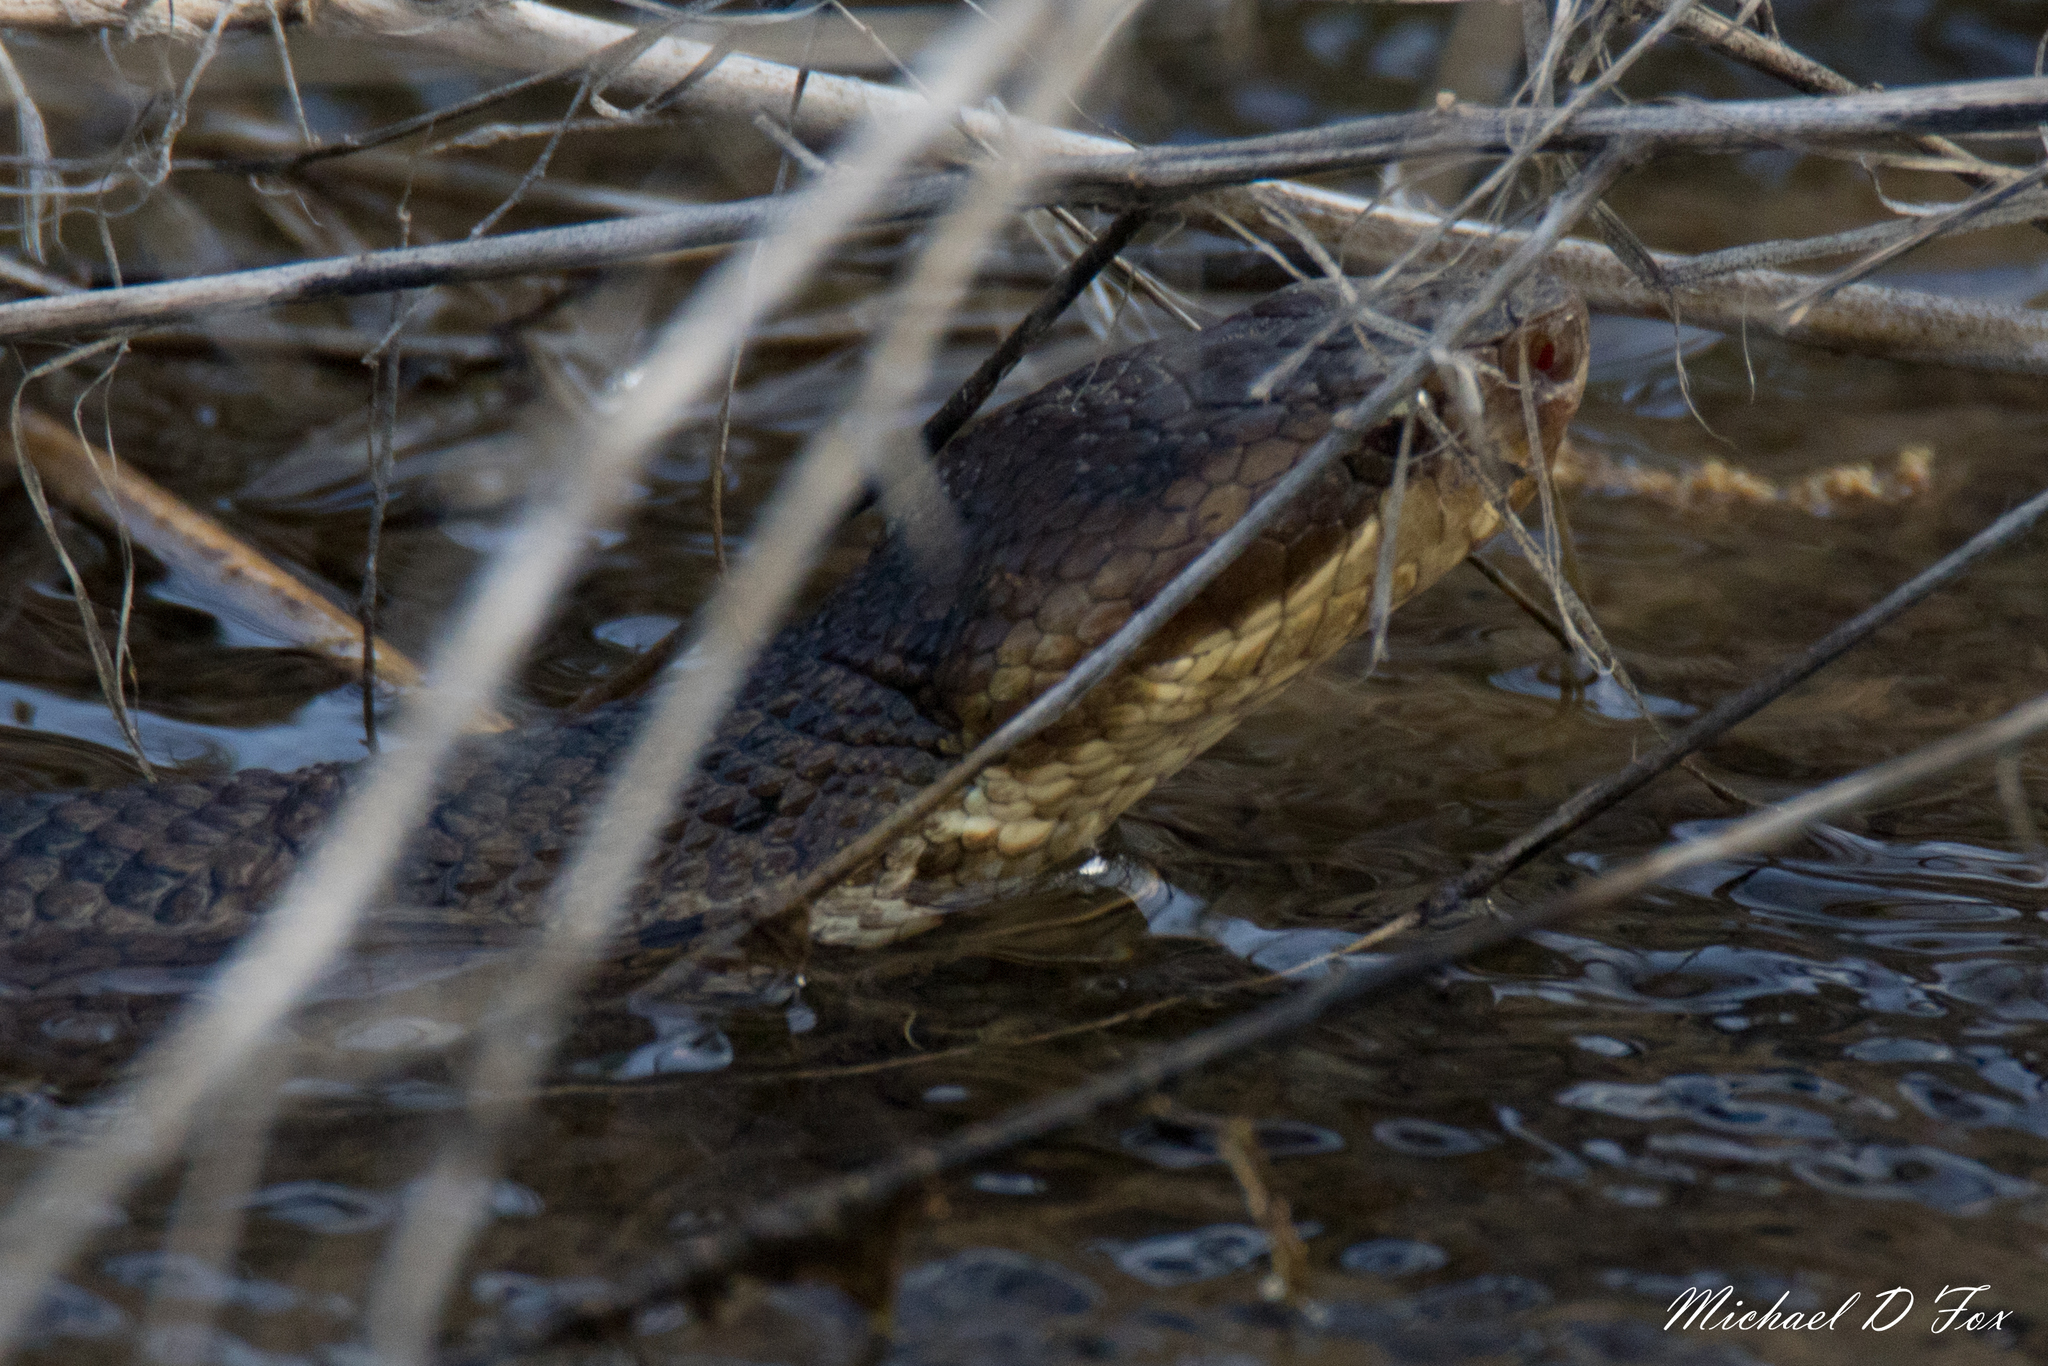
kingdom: Animalia
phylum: Chordata
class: Squamata
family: Viperidae
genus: Agkistrodon
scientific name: Agkistrodon piscivorus
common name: Cottonmouth
